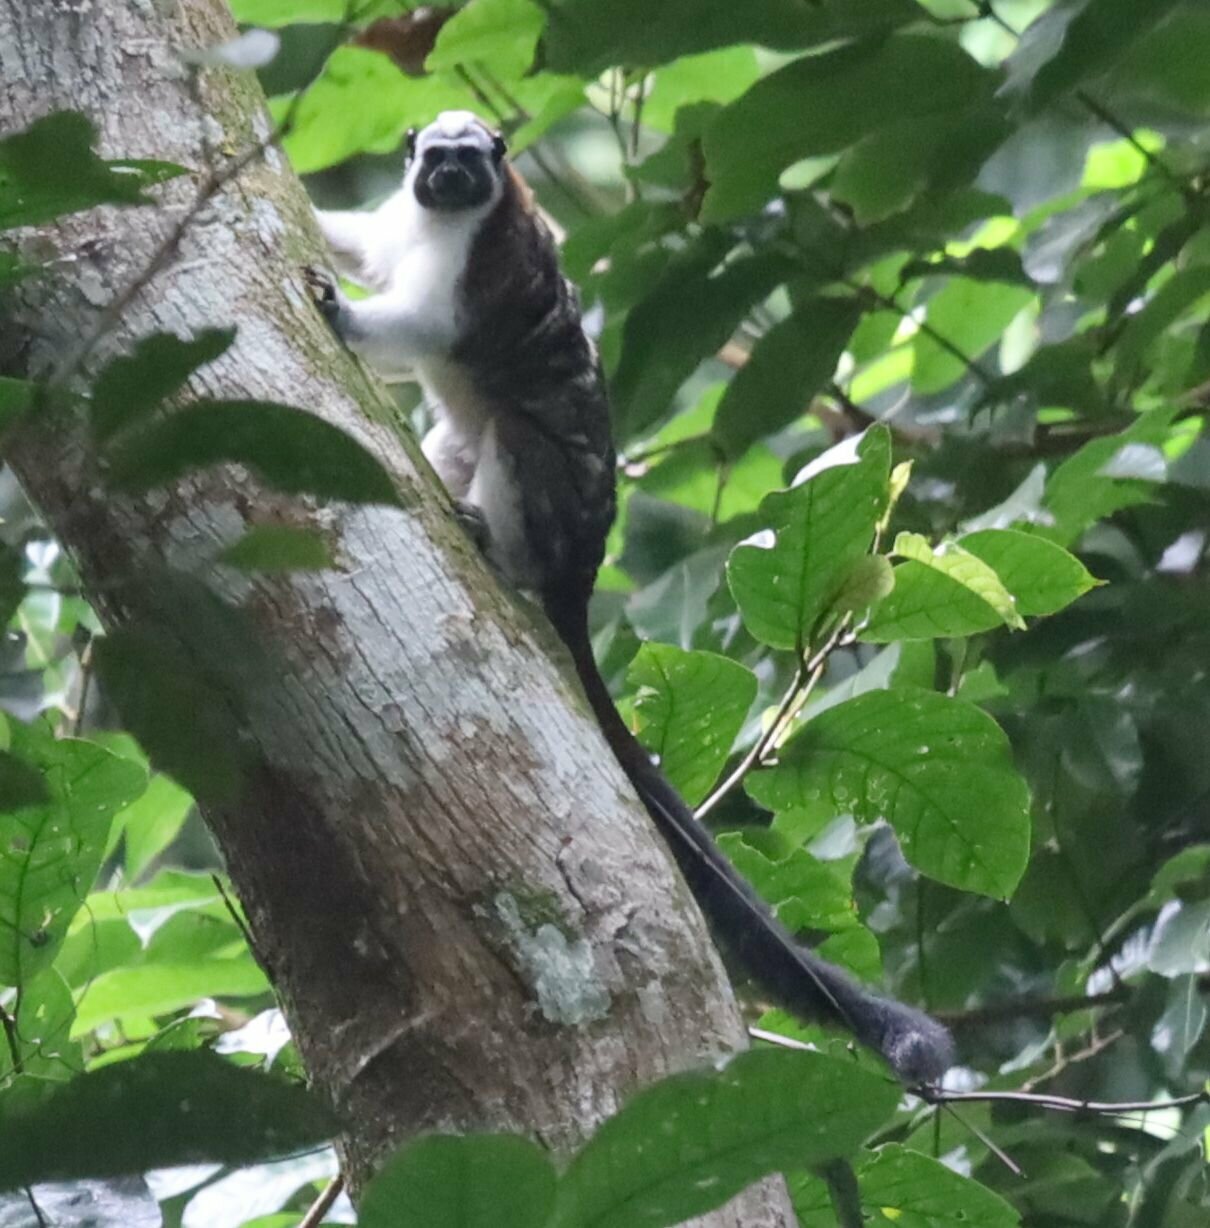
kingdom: Animalia
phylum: Chordata
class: Mammalia
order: Primates
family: Callitrichidae
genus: Saguinus
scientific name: Saguinus geoffroyi
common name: Geoffroy s tamarin
